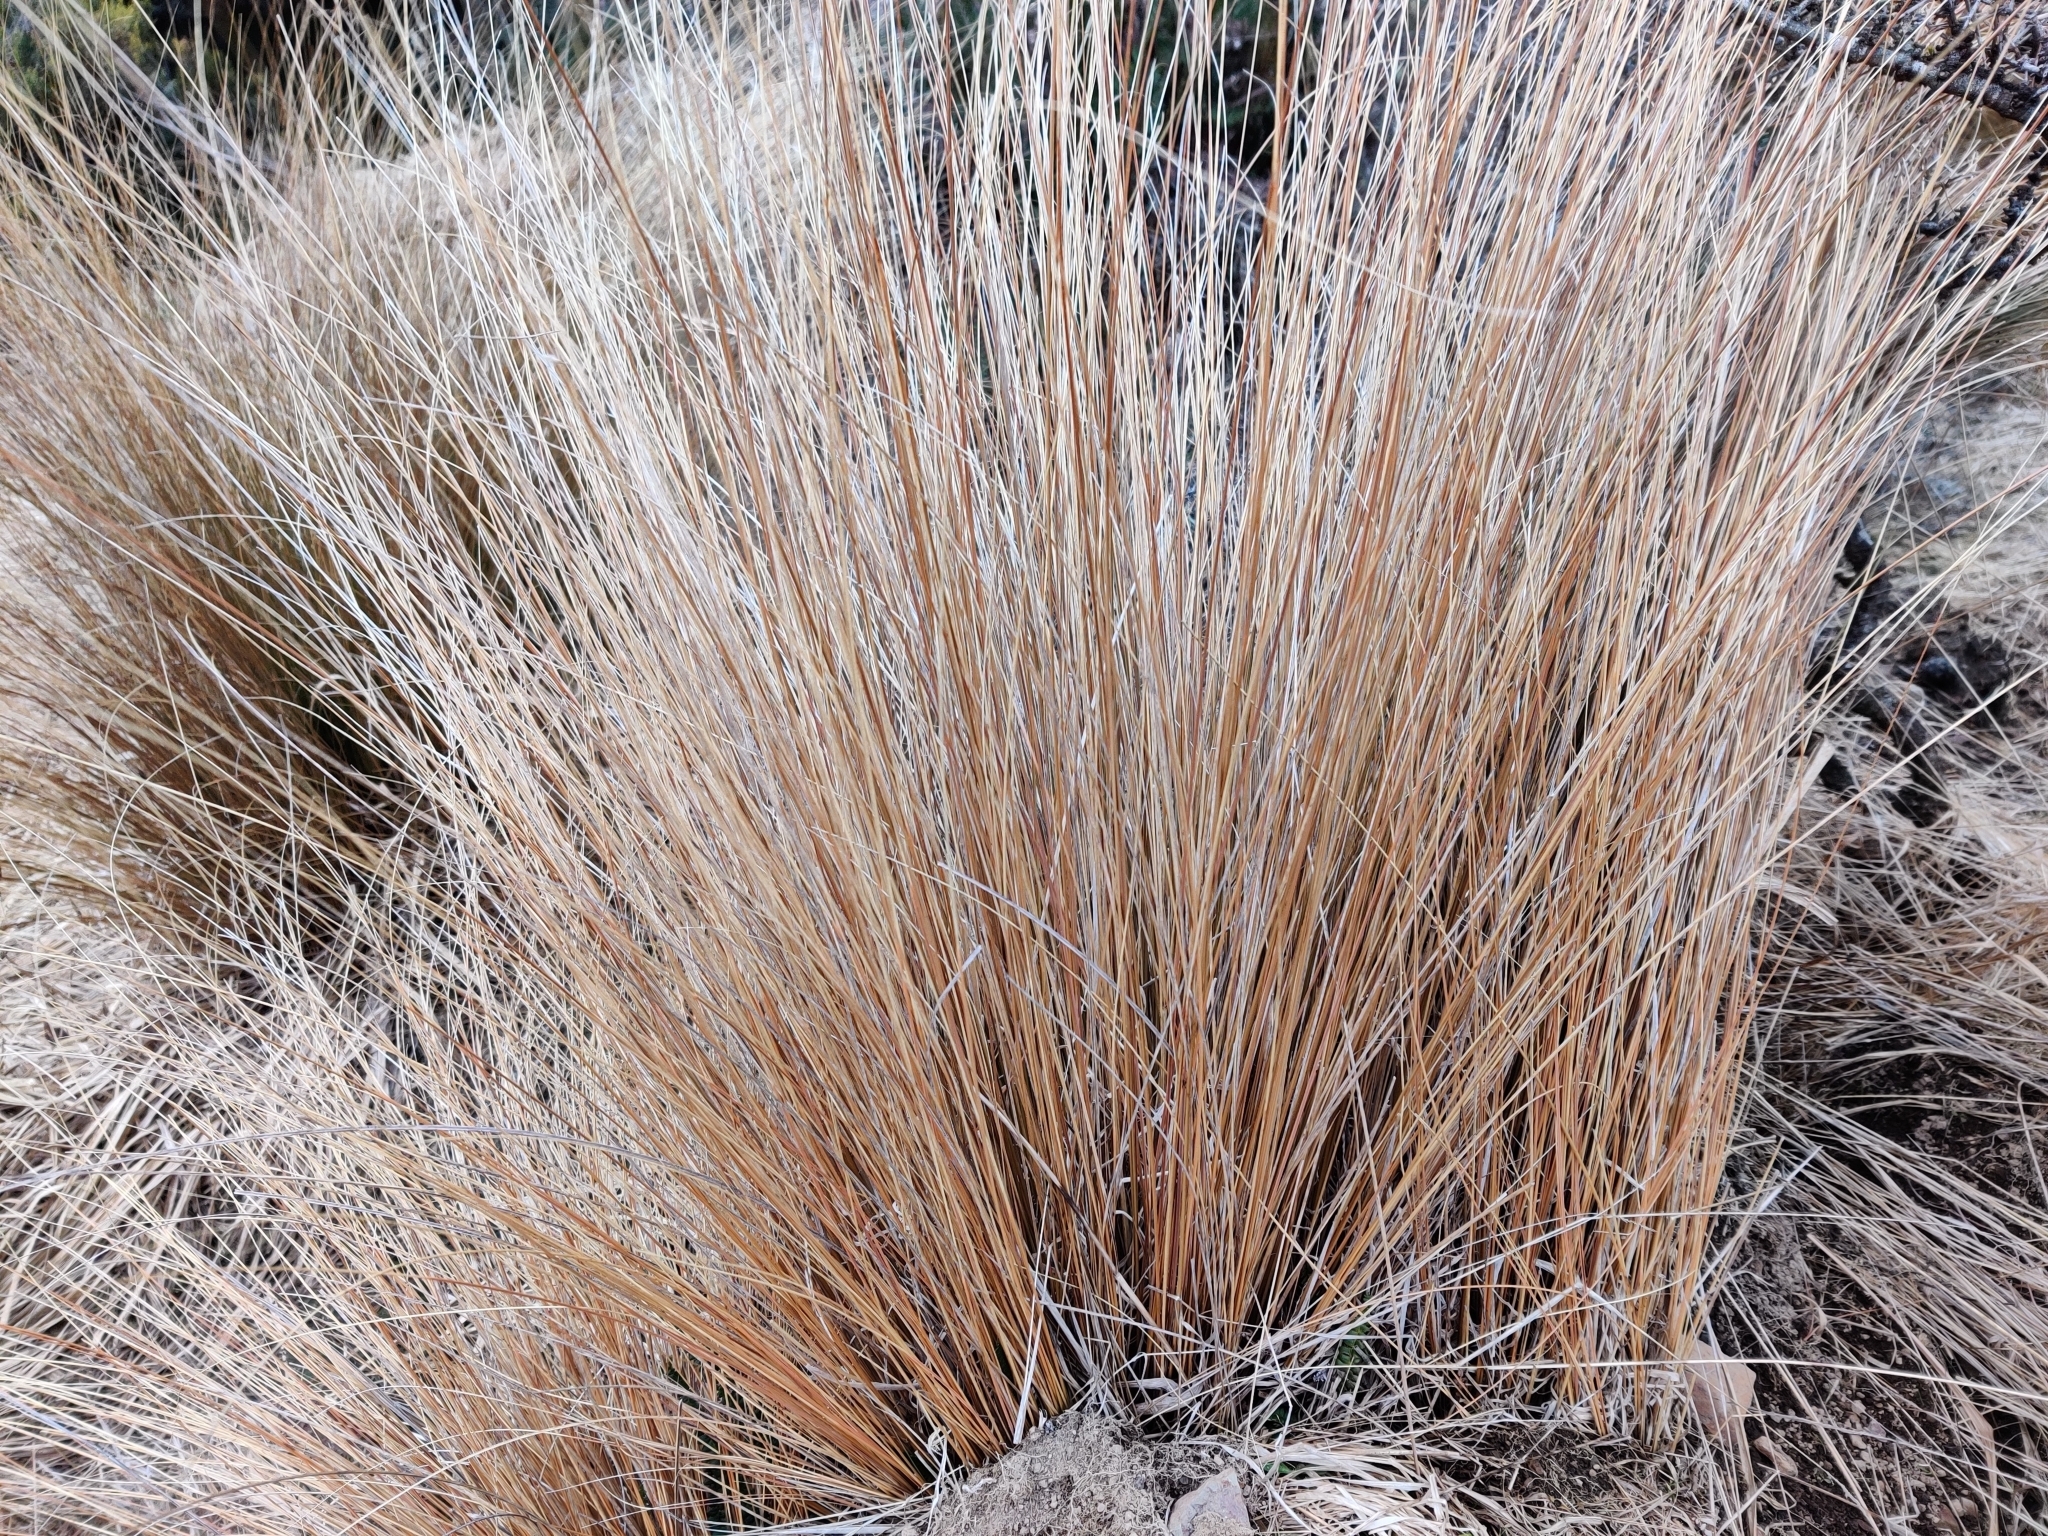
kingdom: Plantae
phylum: Tracheophyta
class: Liliopsida
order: Poales
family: Poaceae
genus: Chionochloa
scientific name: Chionochloa rubra
